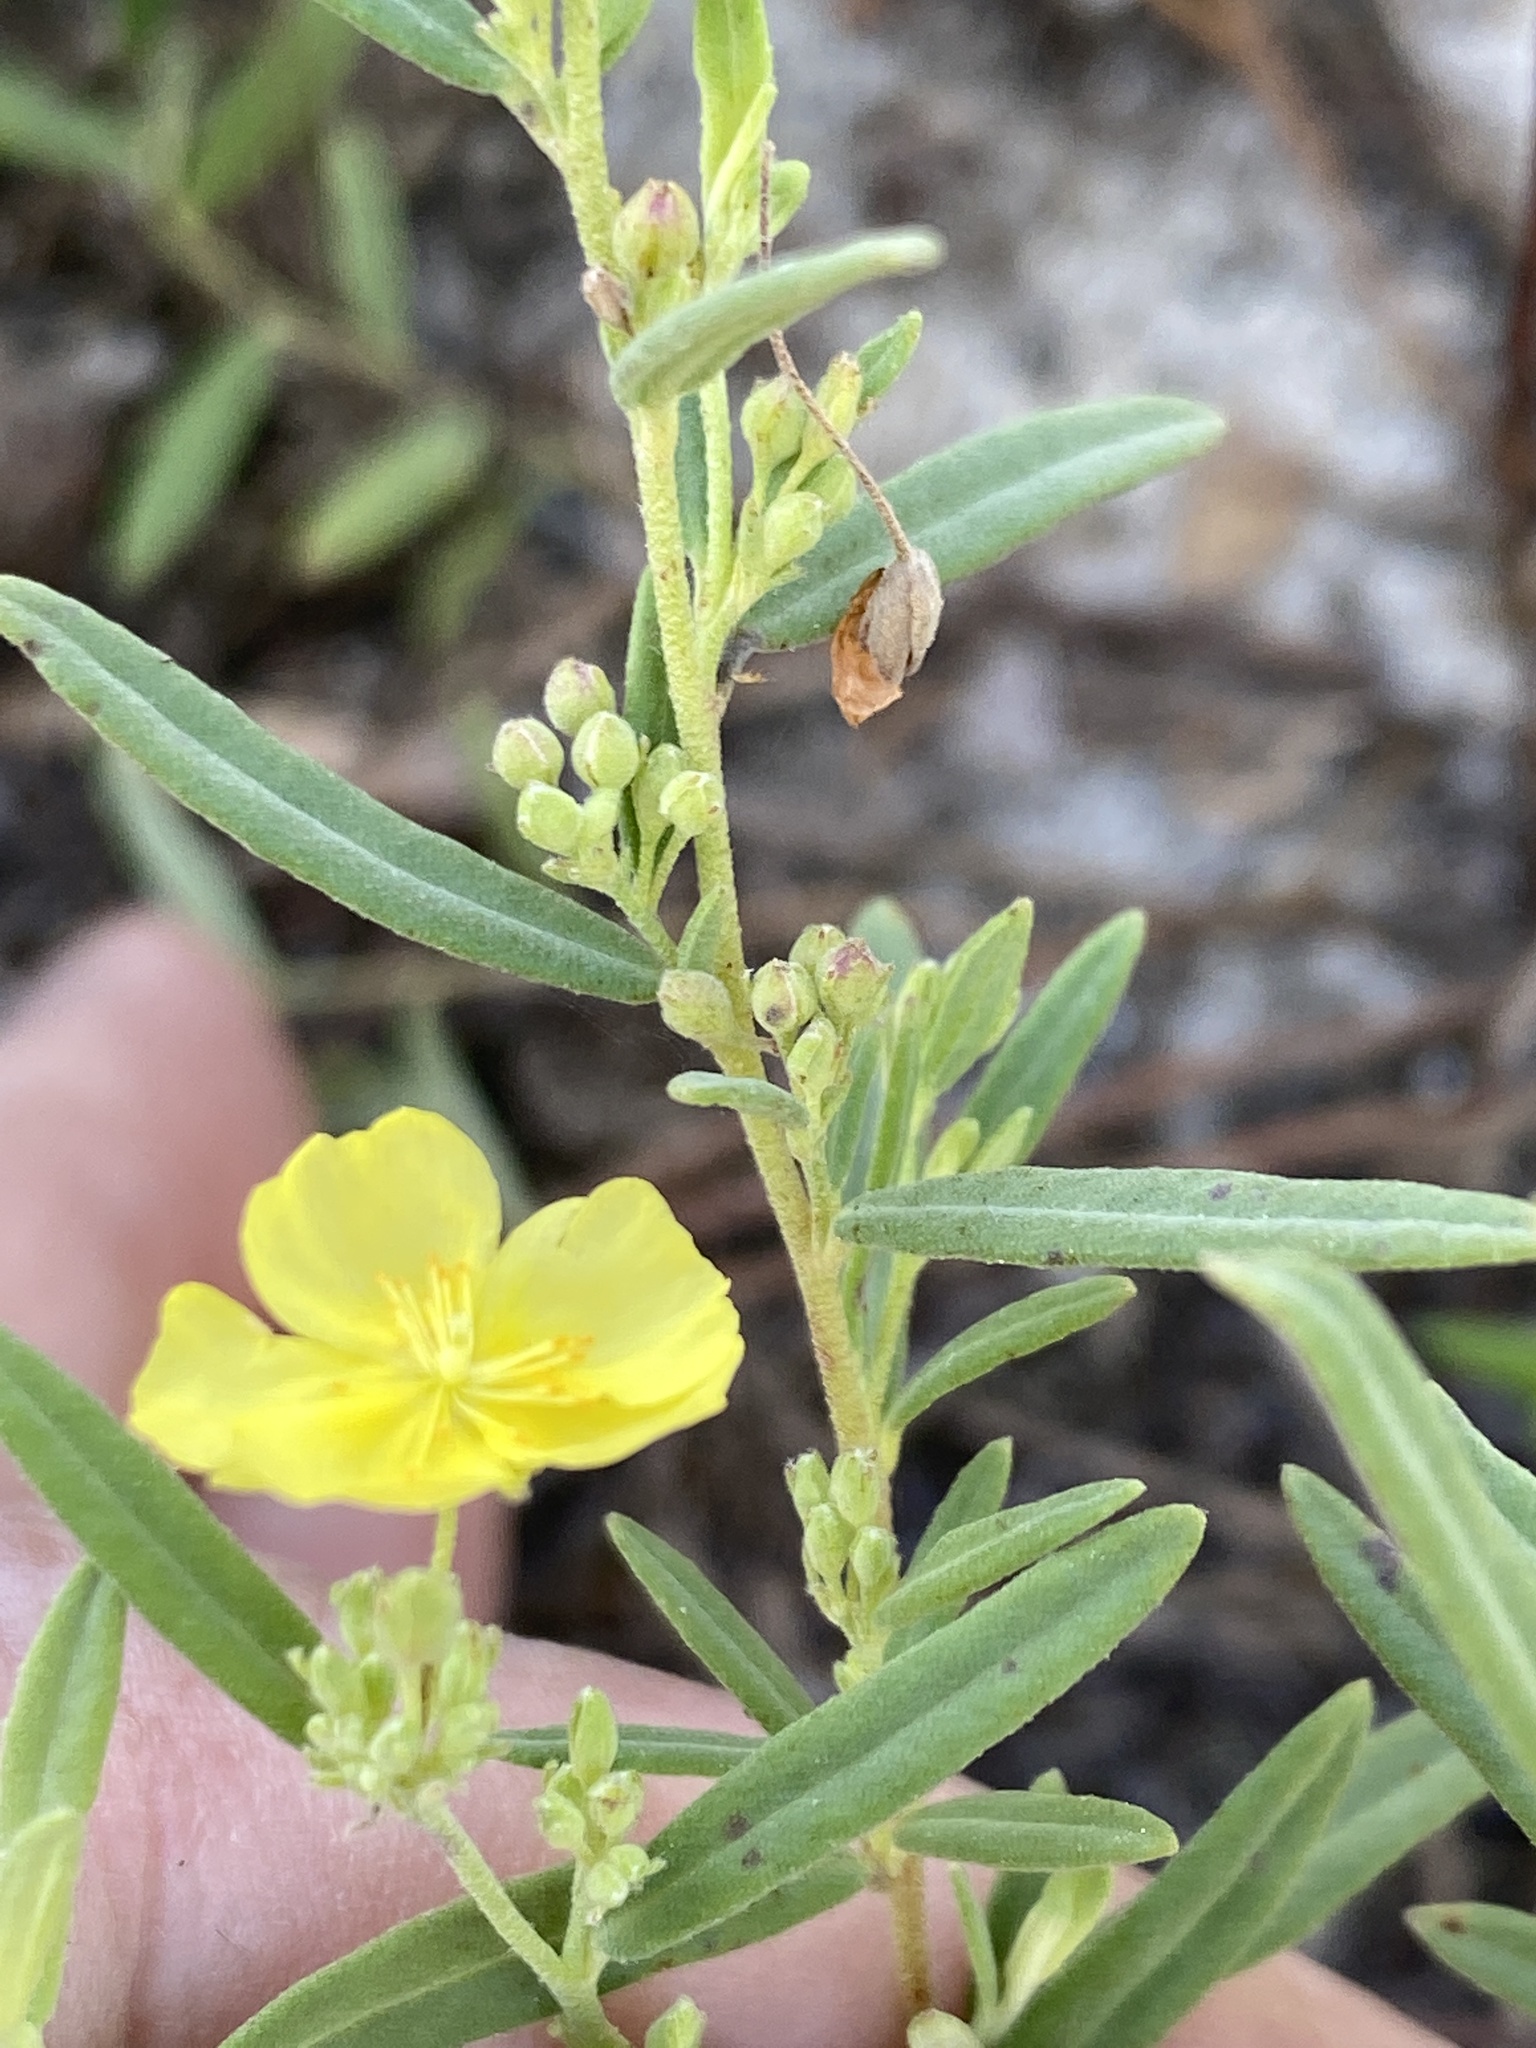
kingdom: Plantae
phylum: Tracheophyta
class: Magnoliopsida
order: Malvales
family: Cistaceae
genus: Crocanthemum
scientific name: Crocanthemum rosmarinifolium
